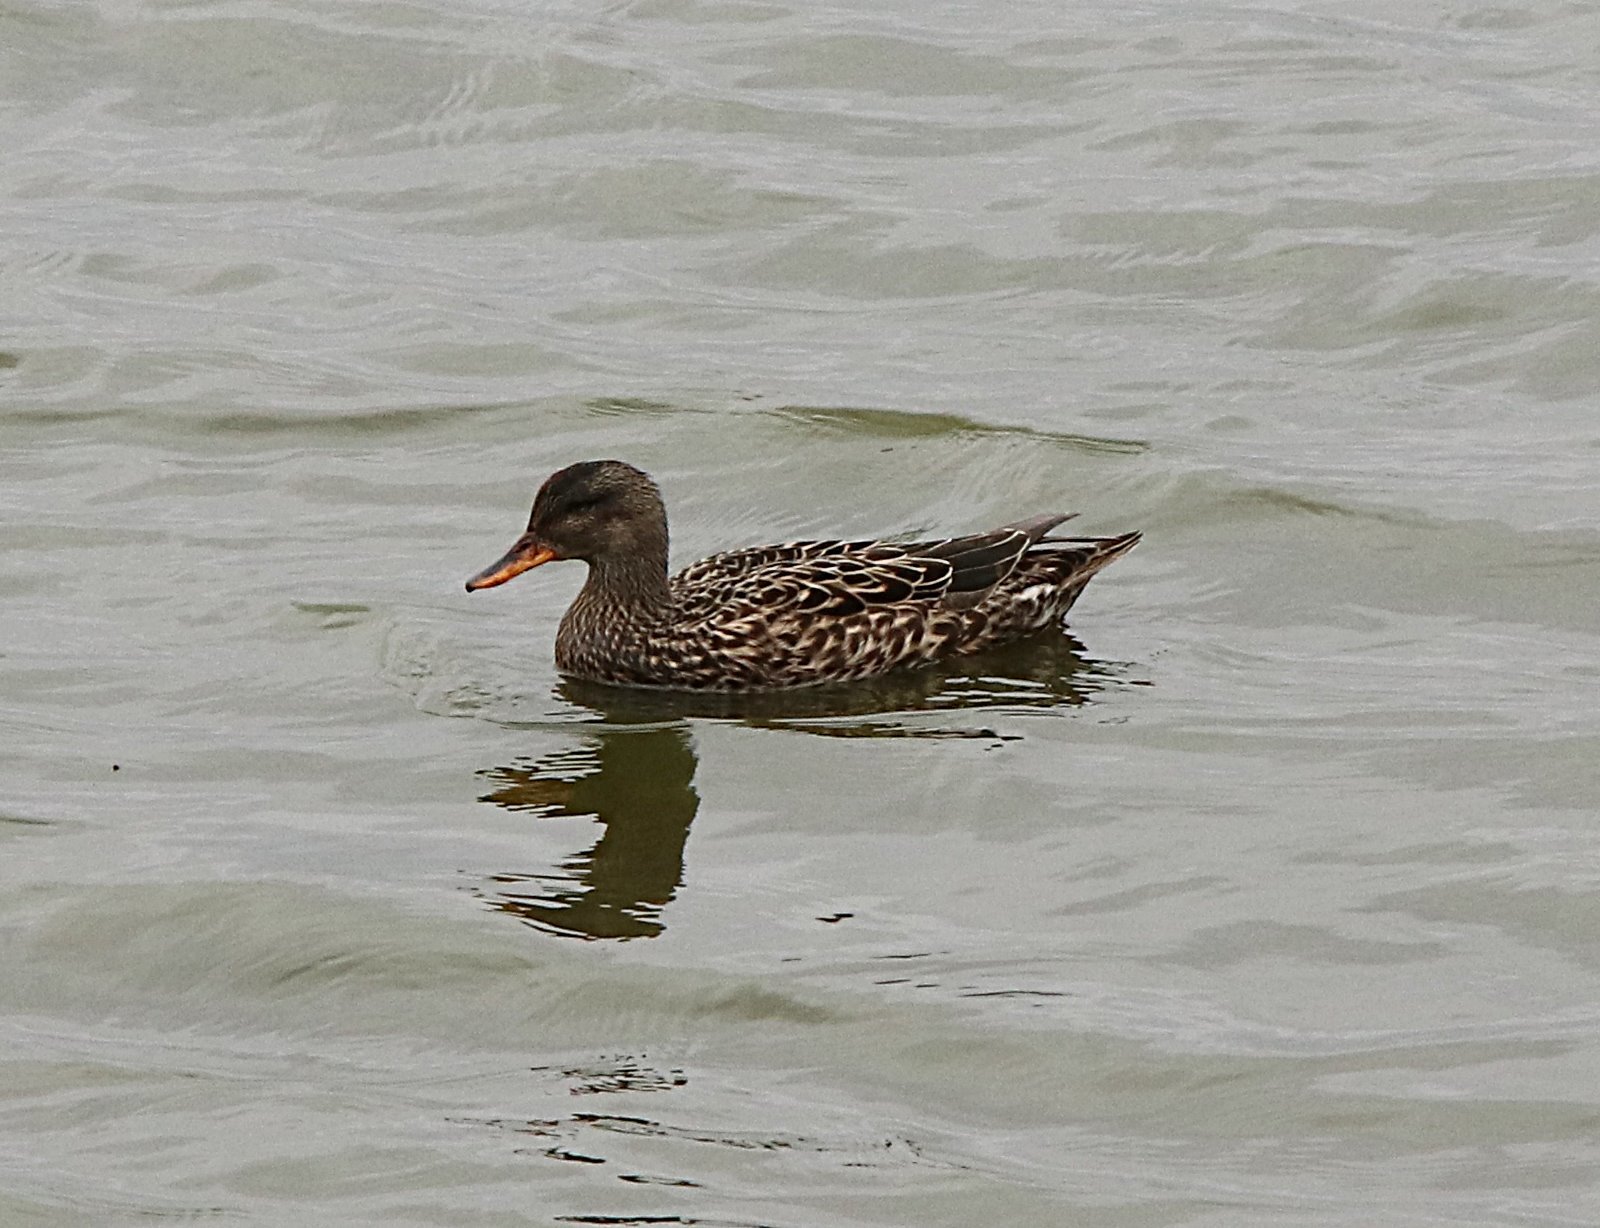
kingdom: Animalia
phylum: Chordata
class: Aves
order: Anseriformes
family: Anatidae
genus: Mareca
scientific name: Mareca strepera
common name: Gadwall
